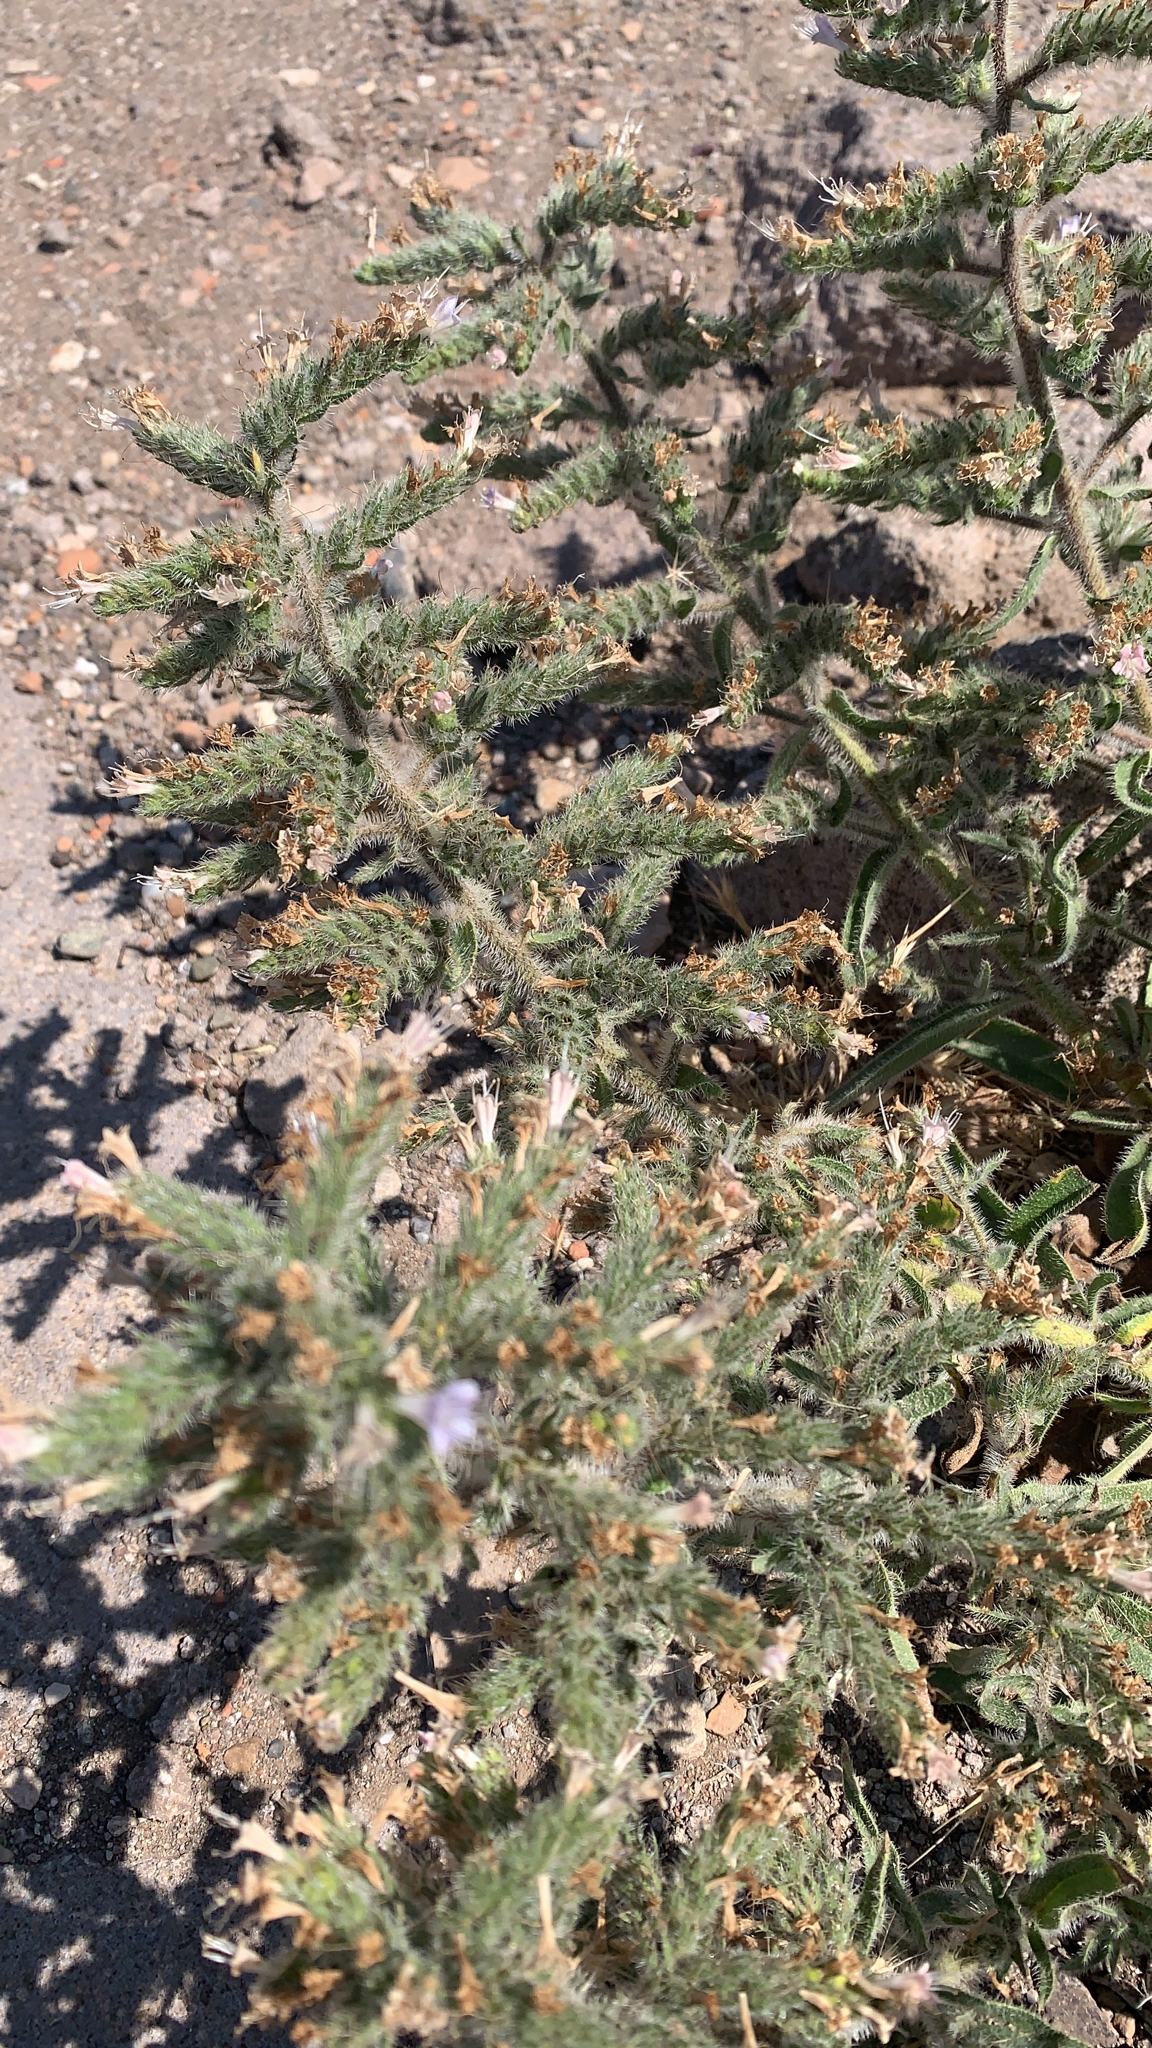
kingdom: Plantae
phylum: Tracheophyta
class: Magnoliopsida
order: Boraginales
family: Boraginaceae
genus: Echium
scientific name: Echium italicum
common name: Italian viper's bugloss
